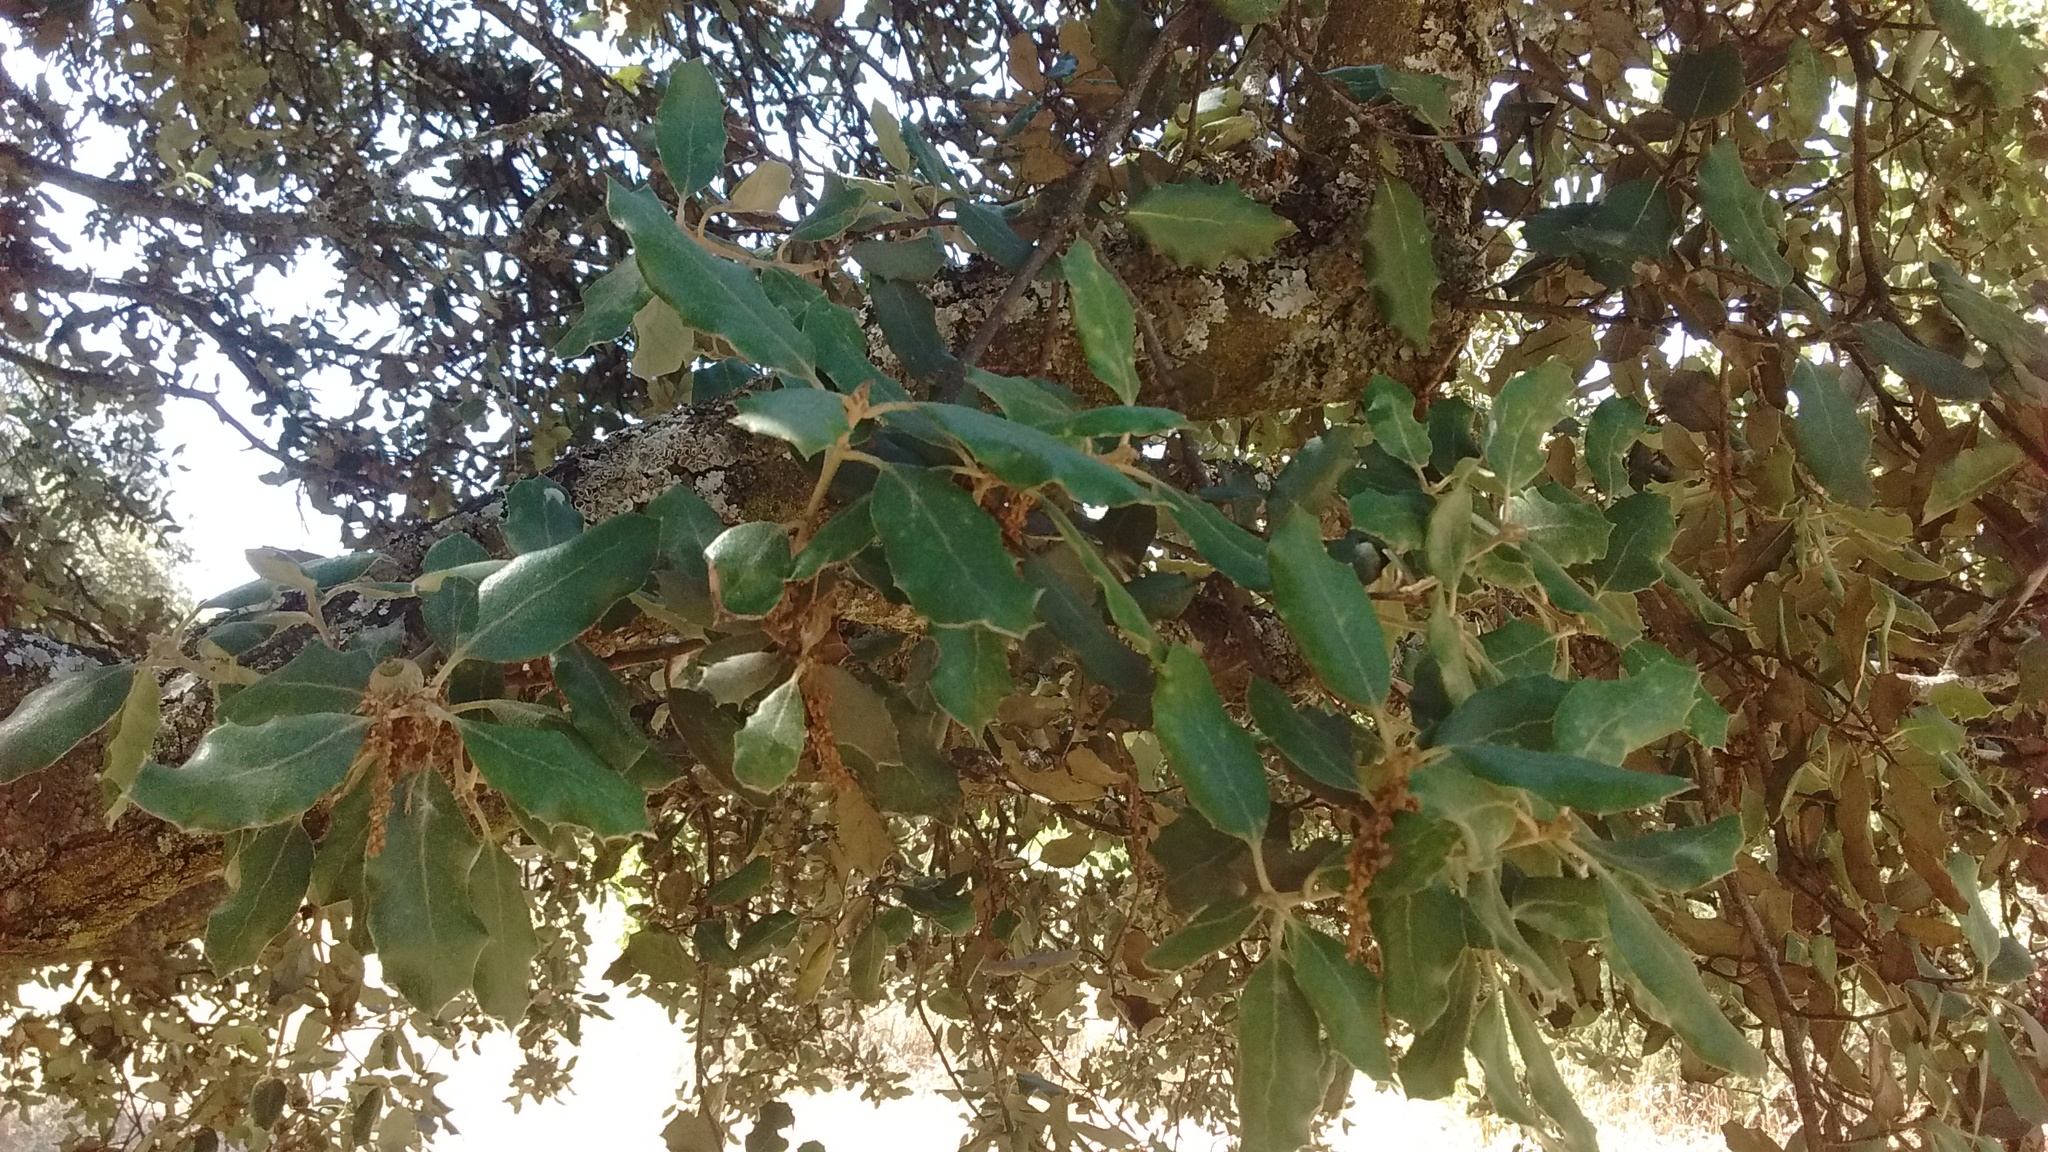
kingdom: Plantae
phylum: Tracheophyta
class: Magnoliopsida
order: Fagales
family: Fagaceae
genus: Quercus
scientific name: Quercus rotundifolia
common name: Holm oak
